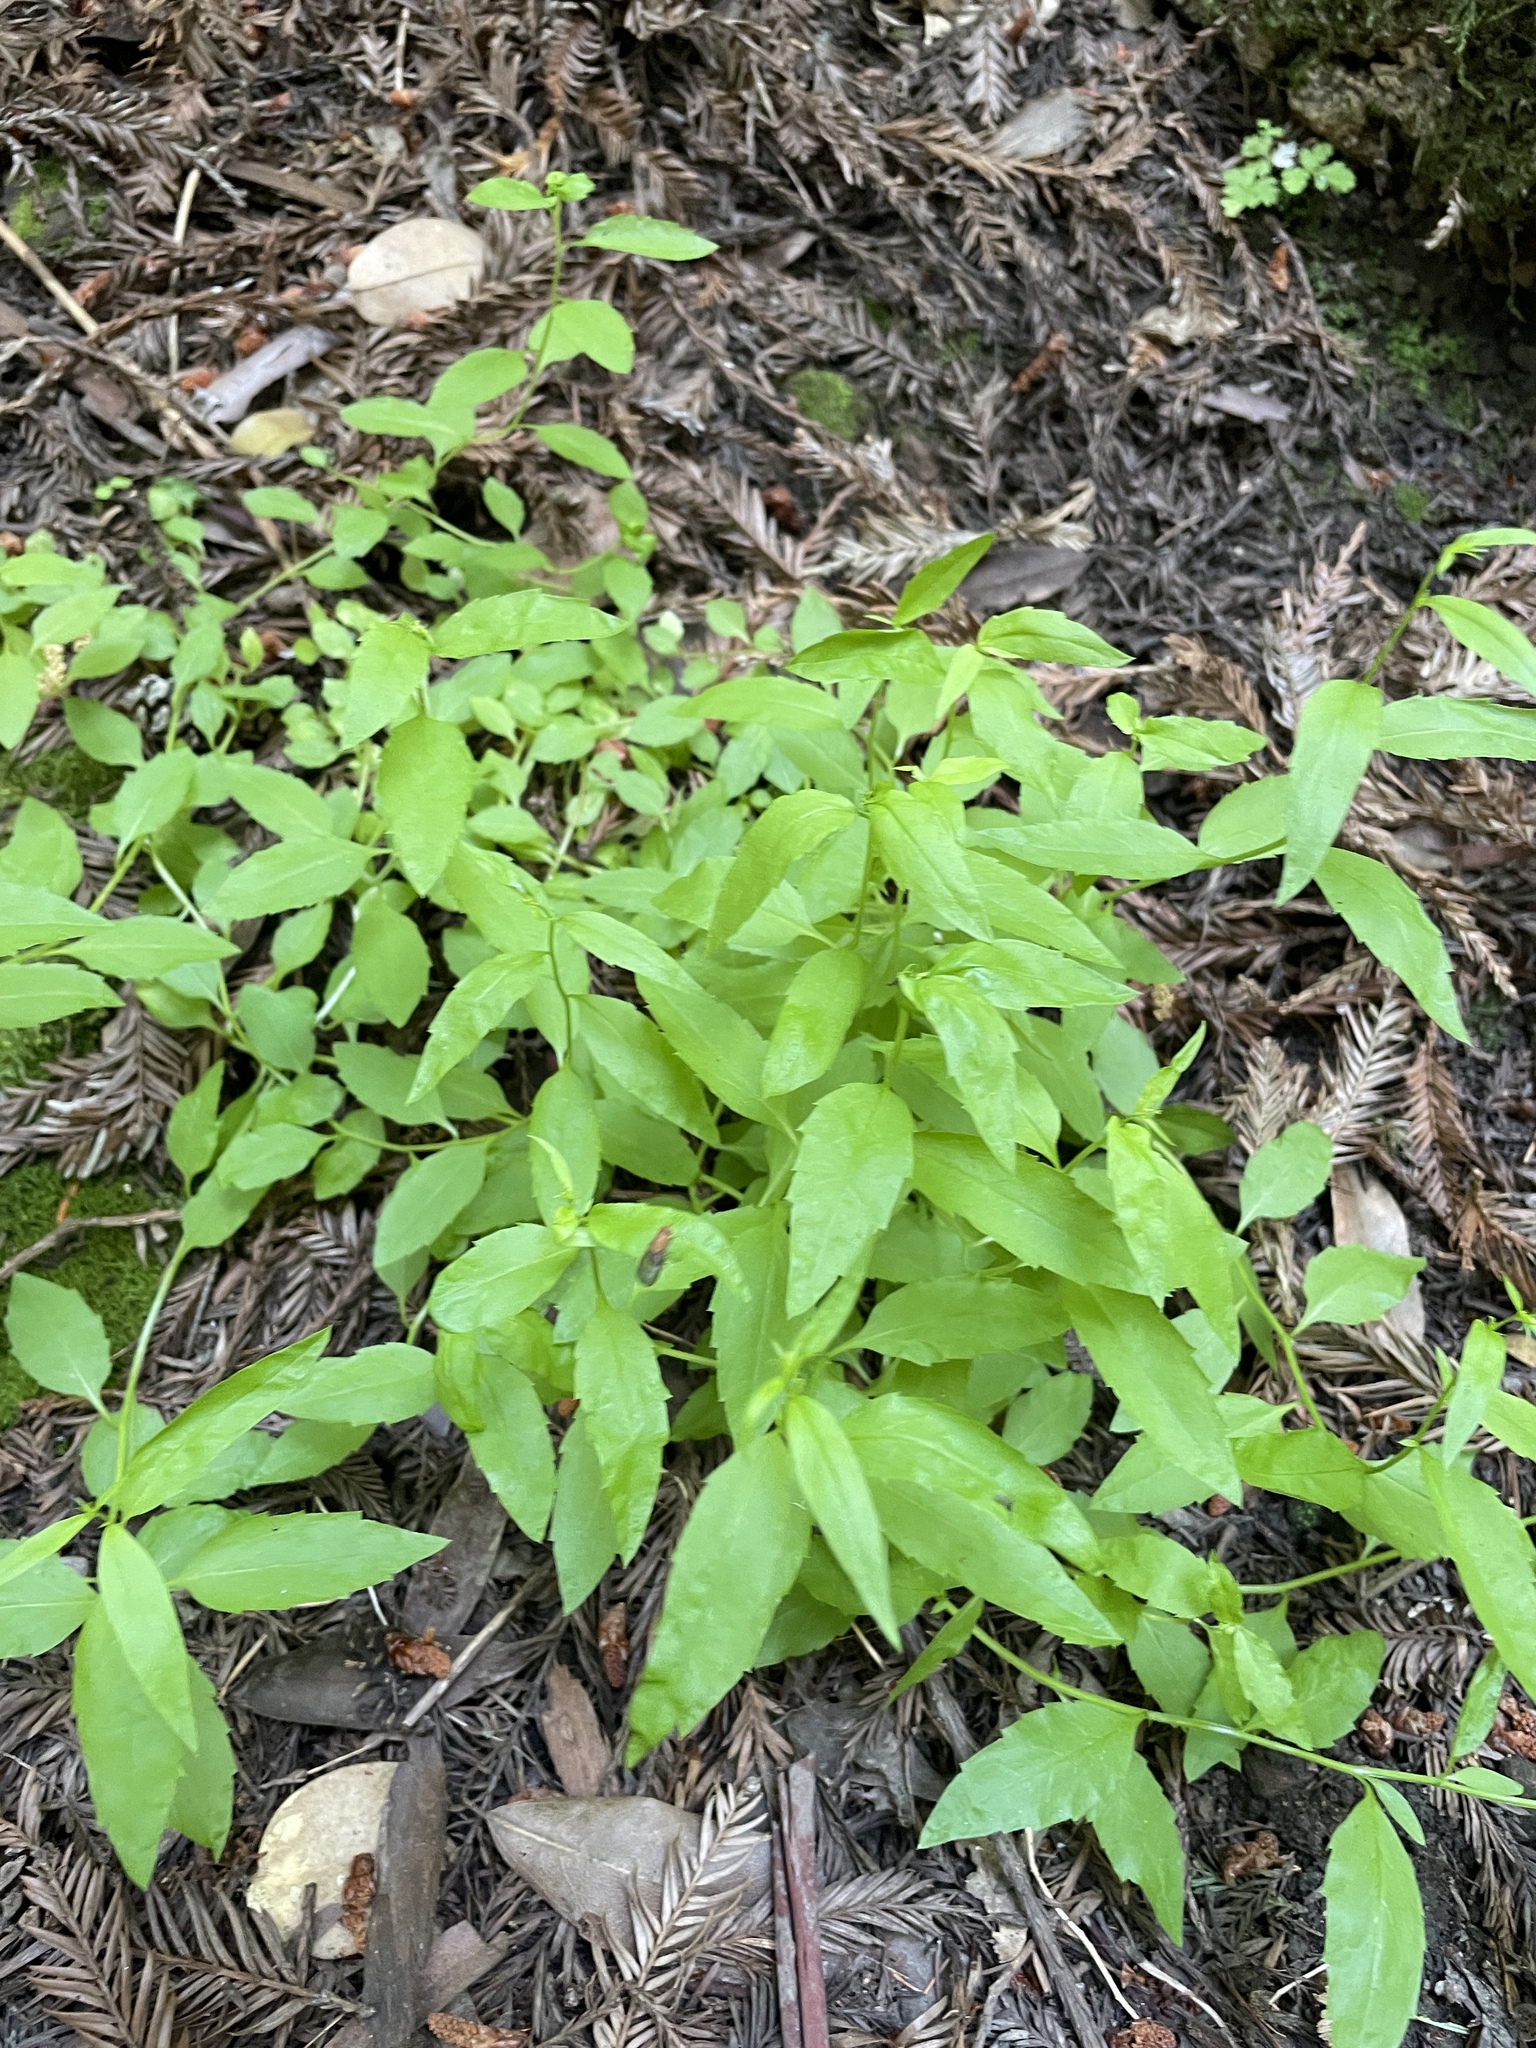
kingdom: Plantae
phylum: Tracheophyta
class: Magnoliopsida
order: Asterales
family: Campanulaceae
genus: Smithiastrum
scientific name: Smithiastrum prenanthoides
